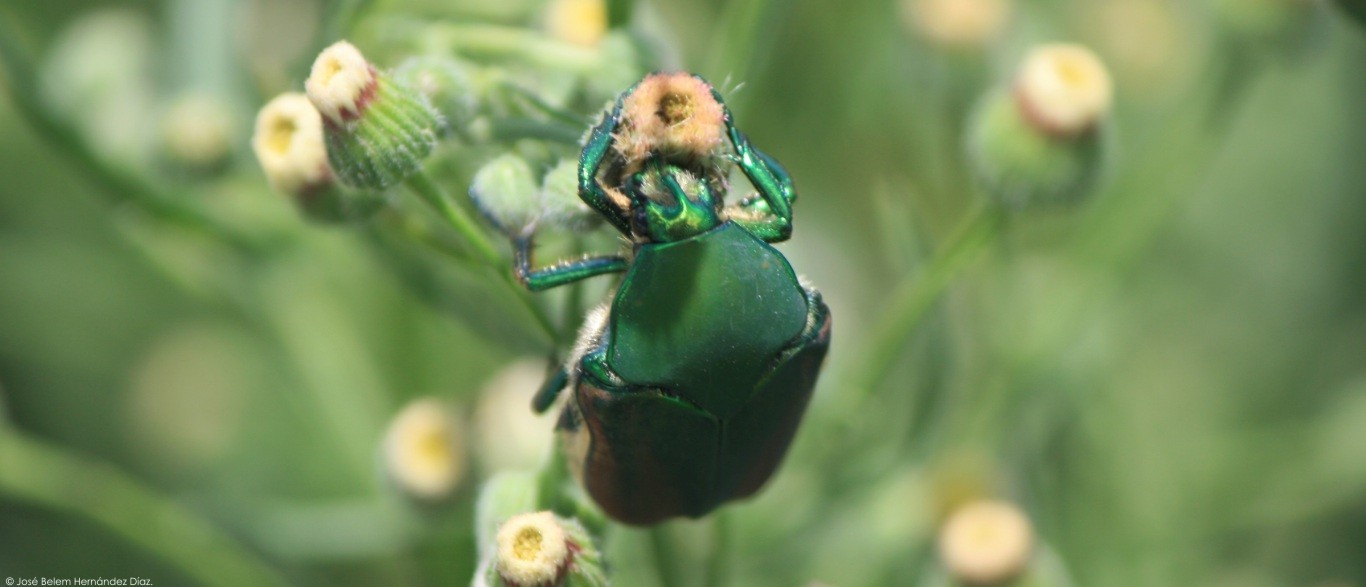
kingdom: Animalia
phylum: Arthropoda
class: Insecta
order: Coleoptera
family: Scarabaeidae
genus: Cotinis
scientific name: Cotinis mutabilis
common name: Figeater beetle
